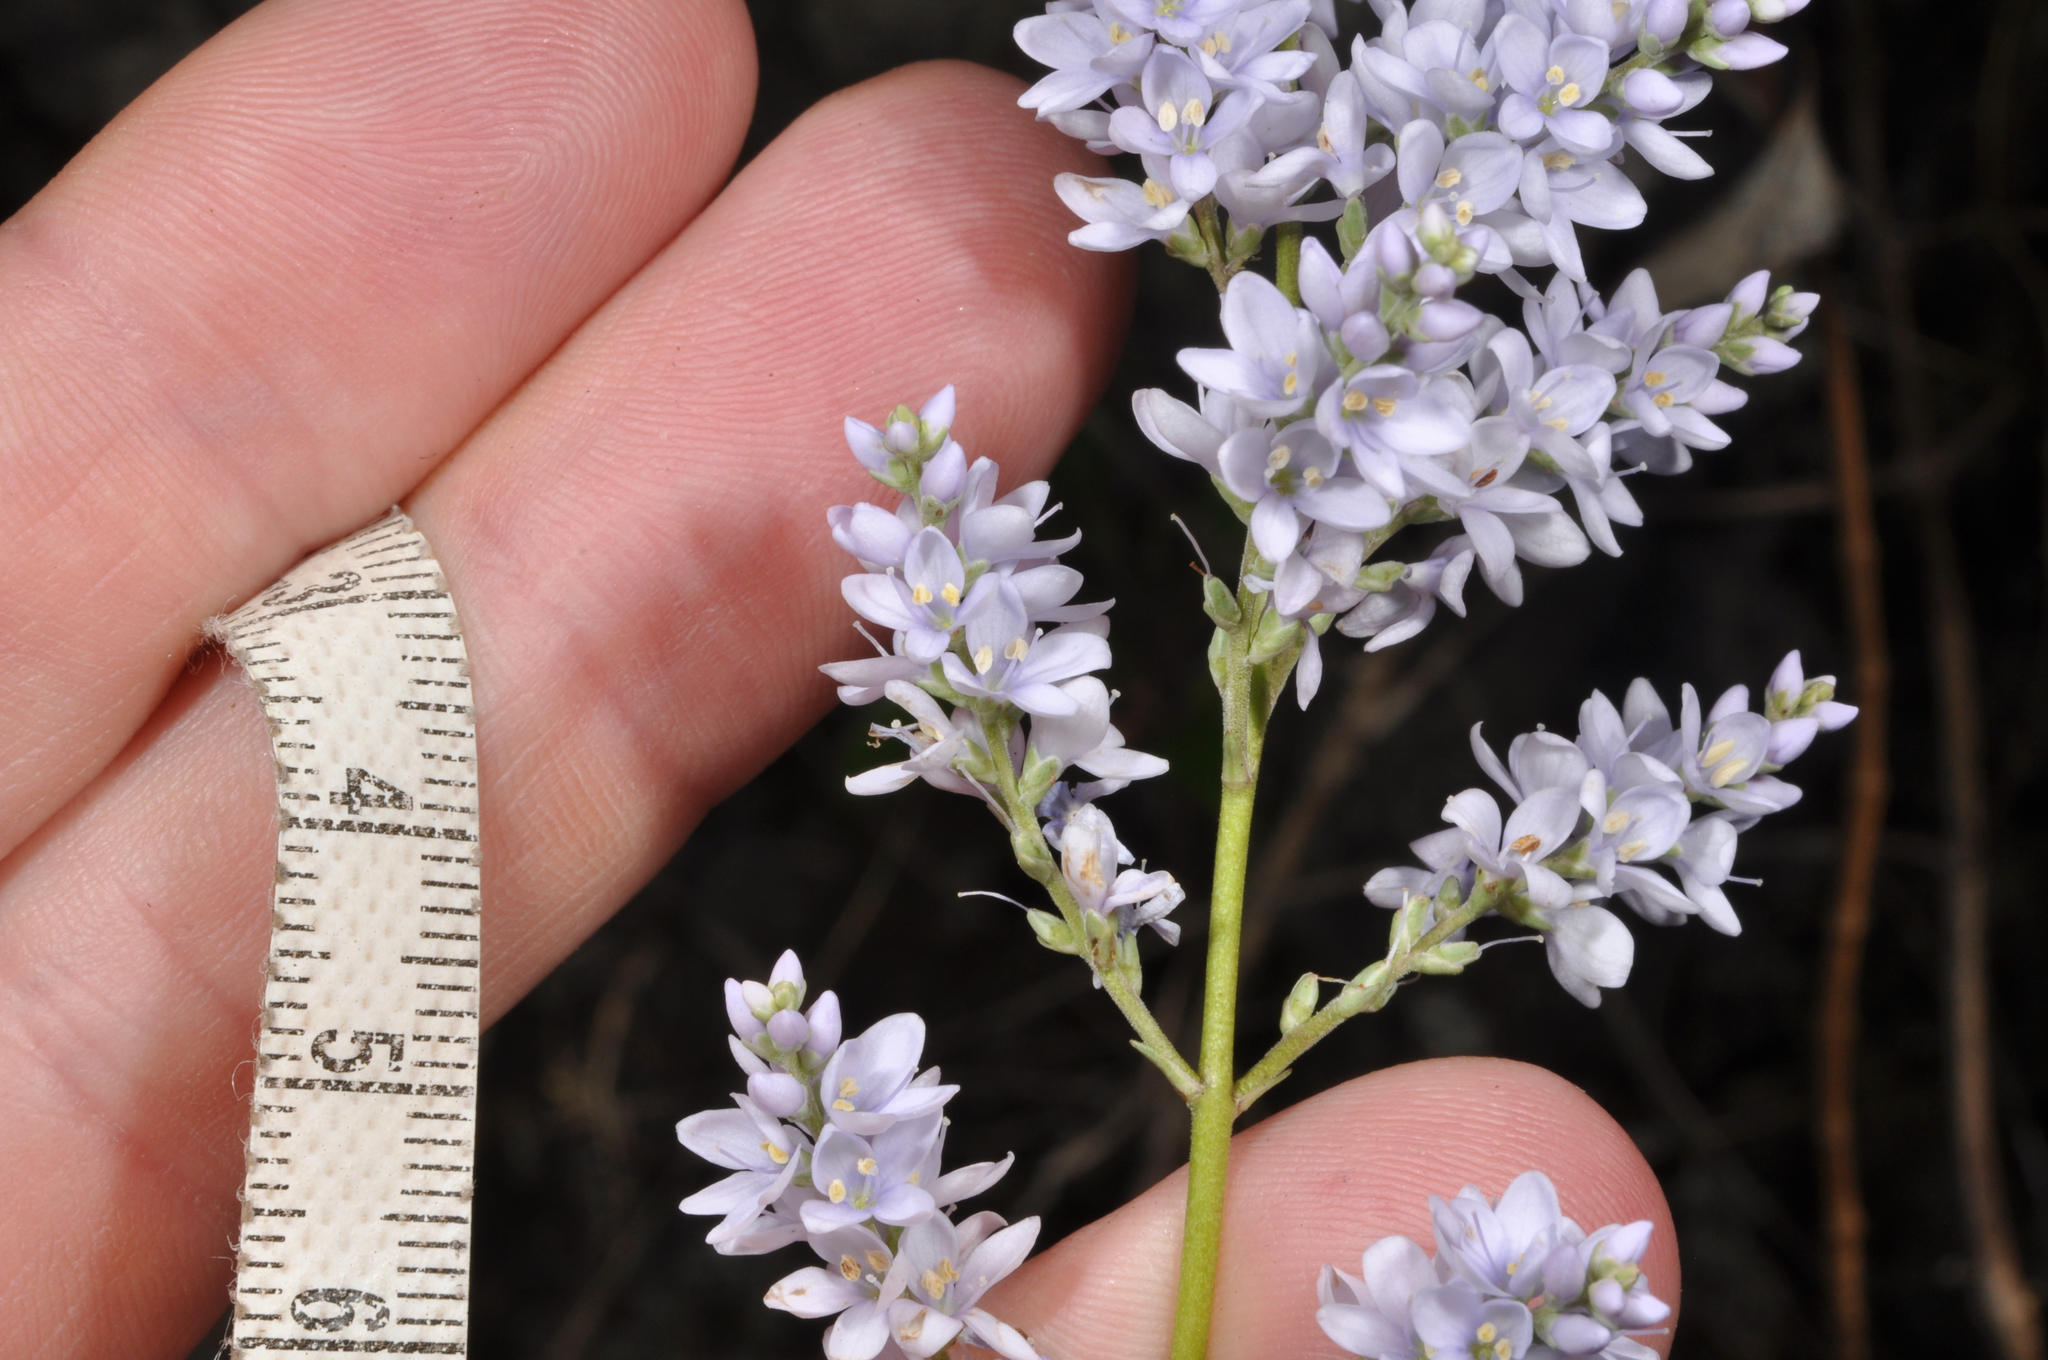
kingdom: Plantae
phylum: Tracheophyta
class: Magnoliopsida
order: Lamiales
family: Plantaginaceae
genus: Veronica
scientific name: Veronica hulkeana
